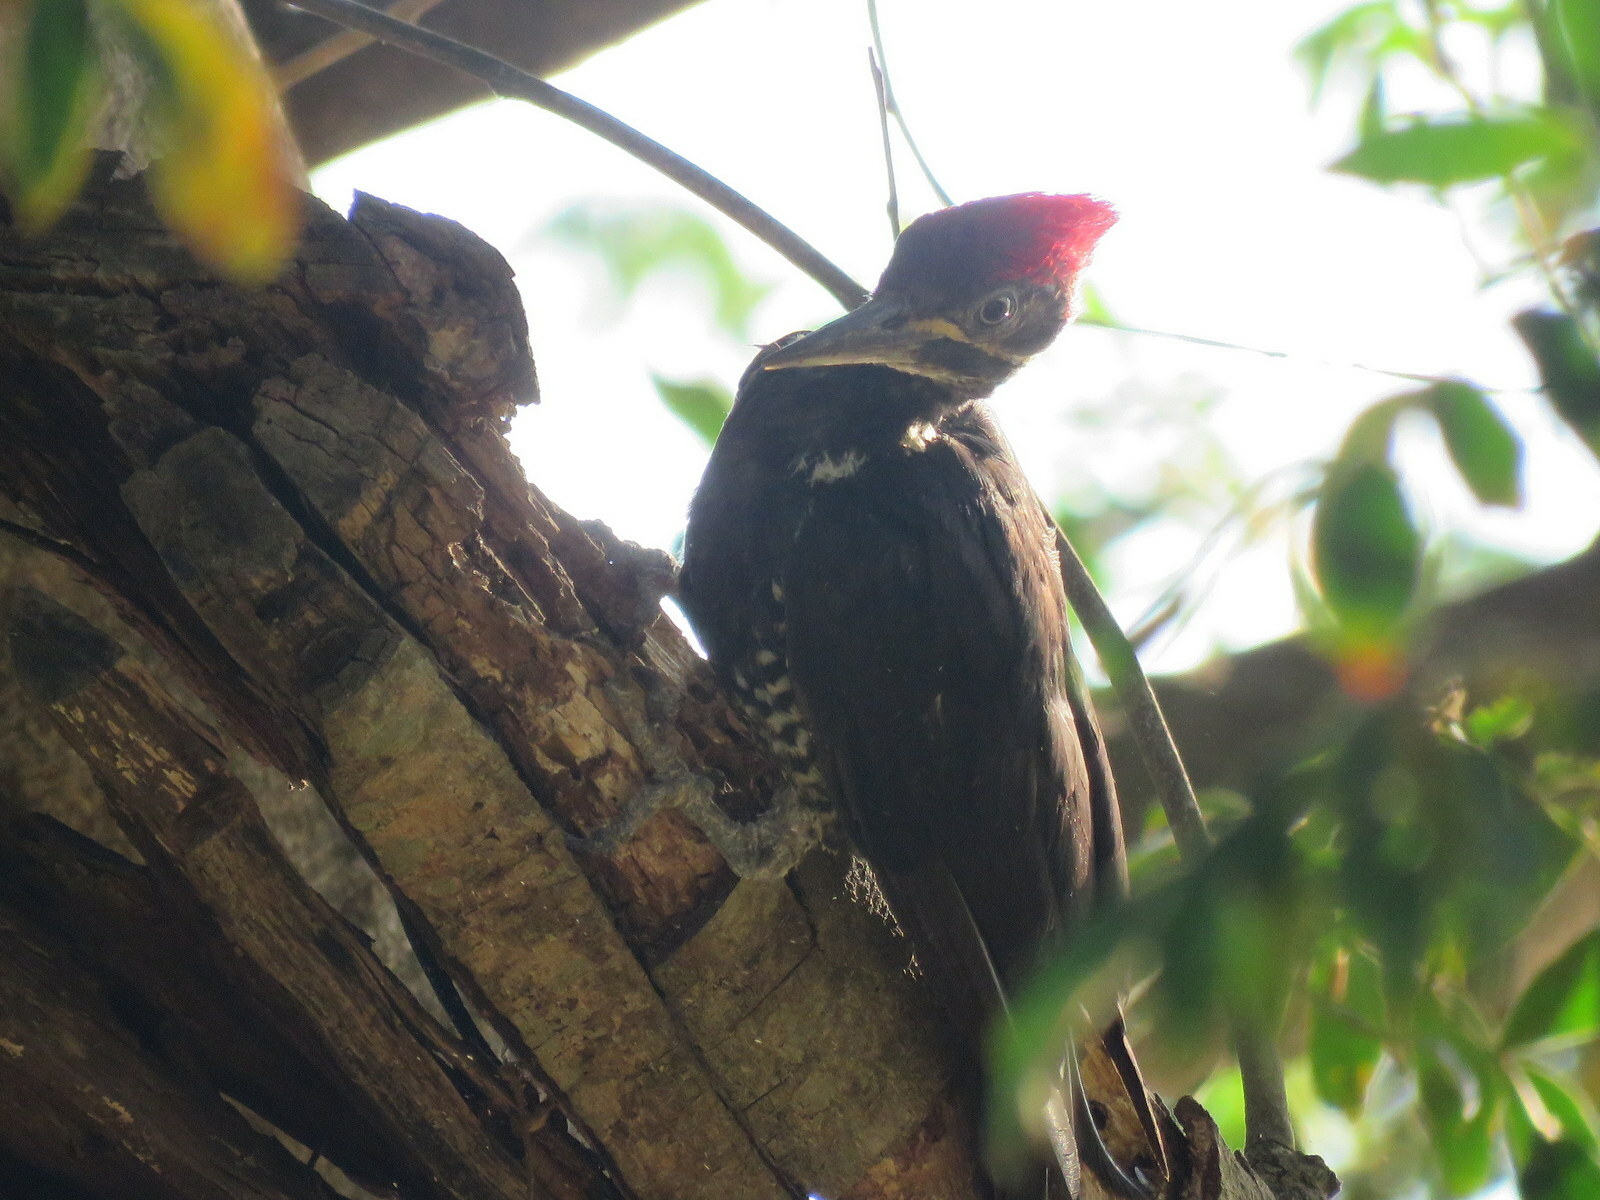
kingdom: Animalia
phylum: Chordata
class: Aves
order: Piciformes
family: Picidae
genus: Dryocopus
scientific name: Dryocopus lineatus
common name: Lineated woodpecker
